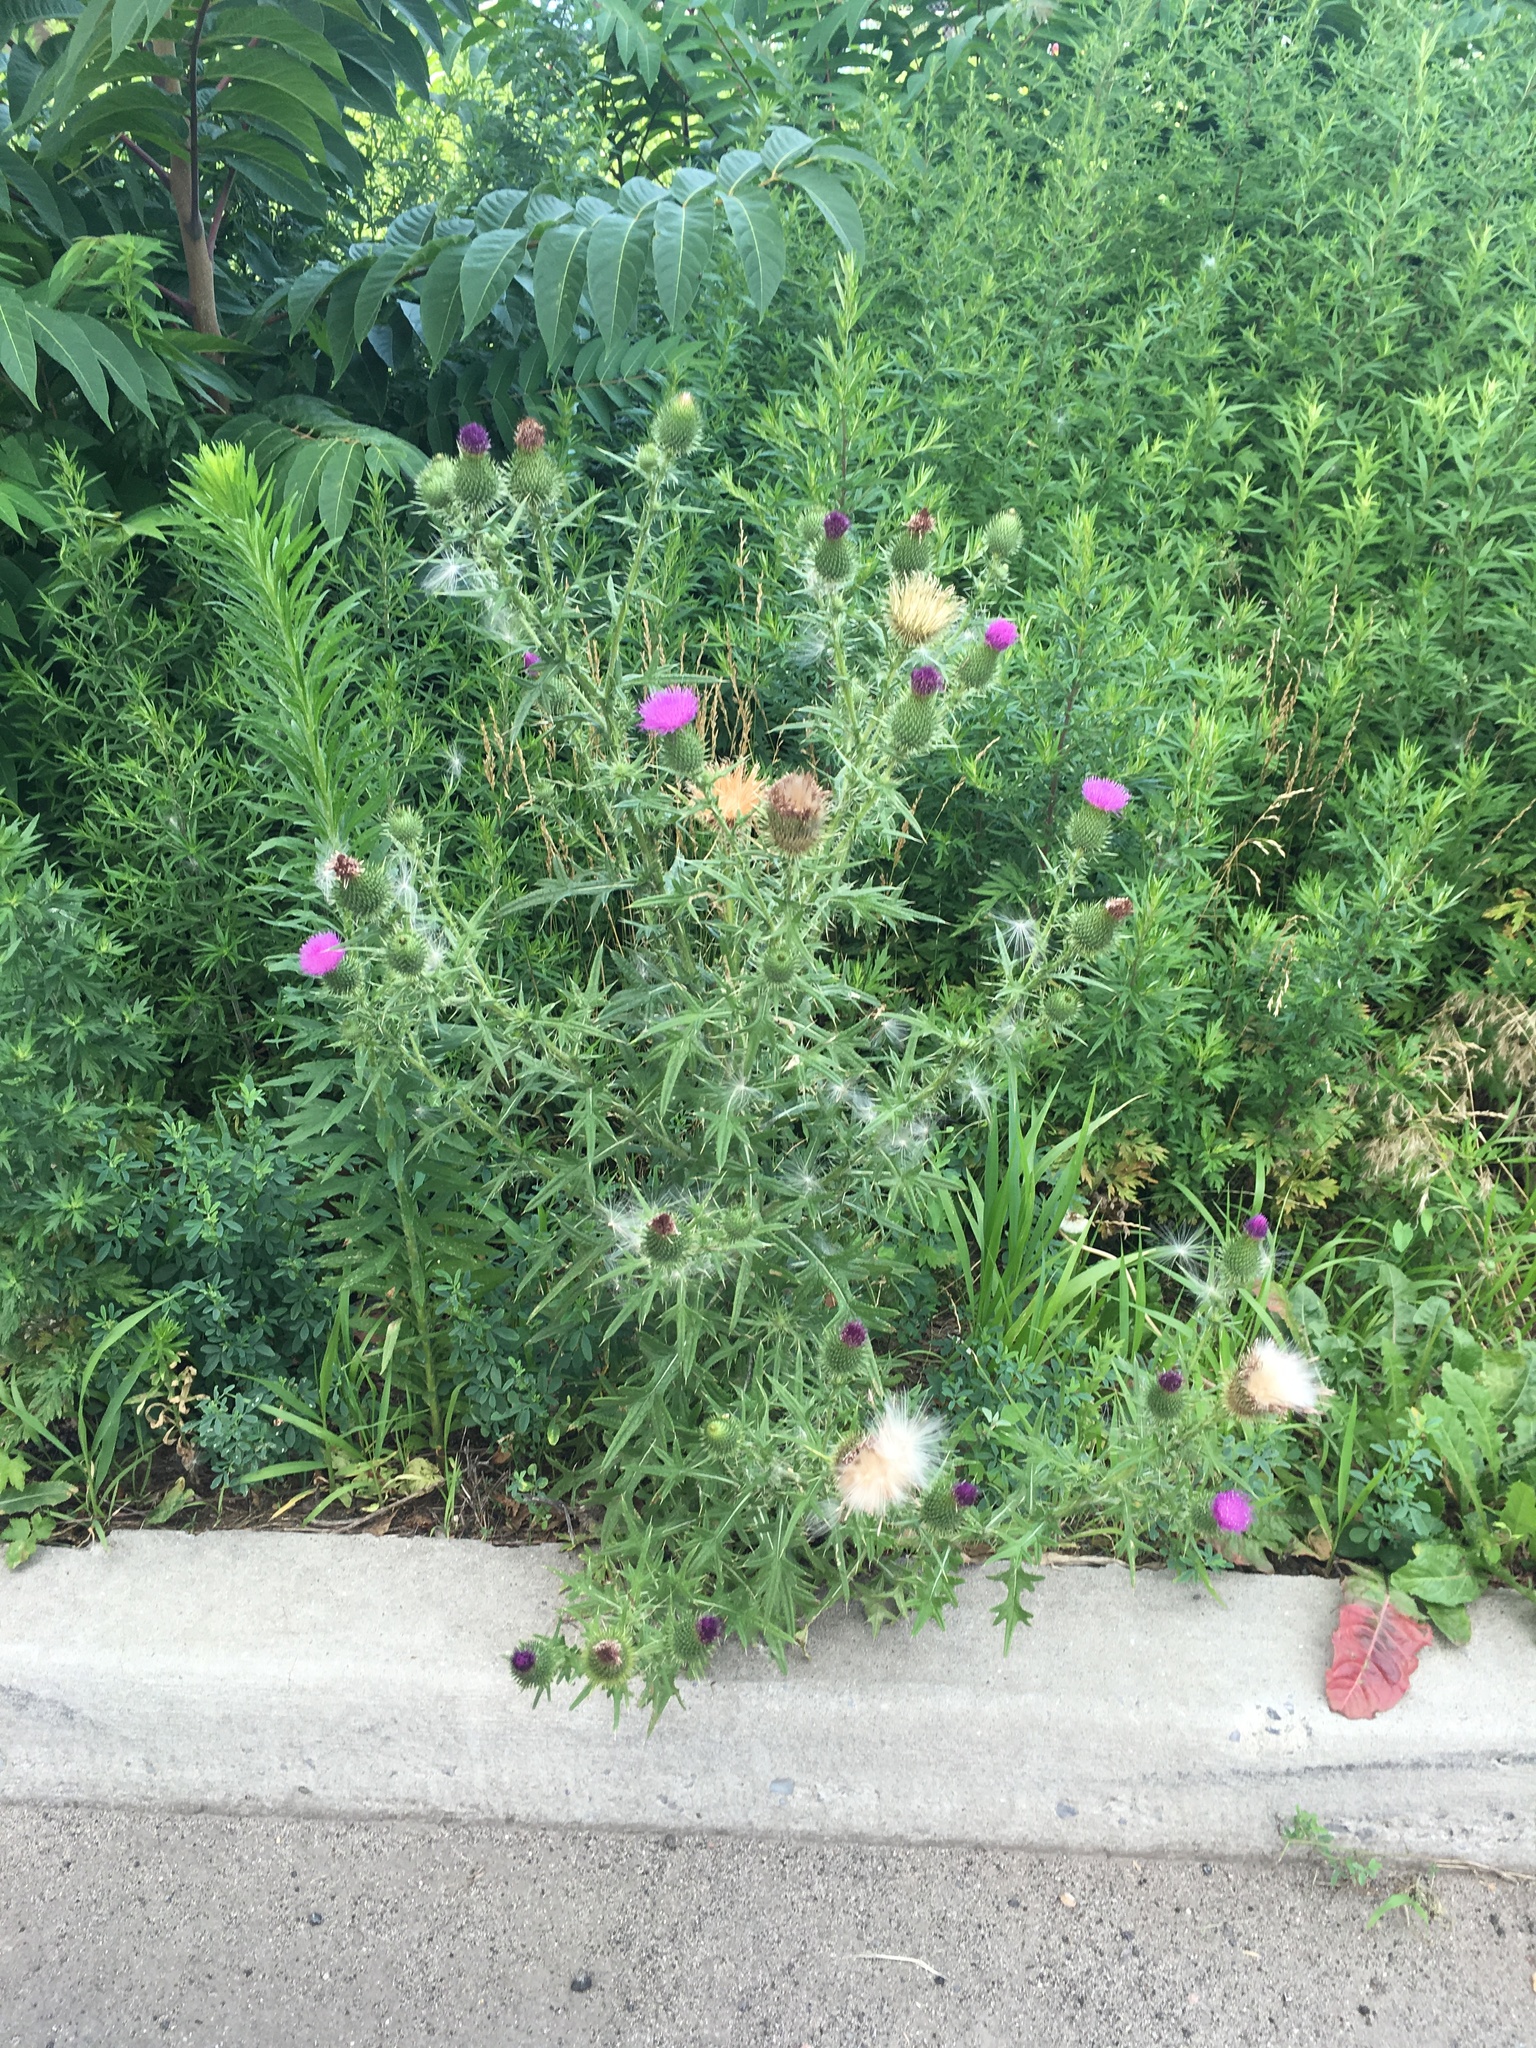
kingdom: Plantae
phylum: Tracheophyta
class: Magnoliopsida
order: Asterales
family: Asteraceae
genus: Cirsium
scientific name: Cirsium vulgare
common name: Bull thistle
